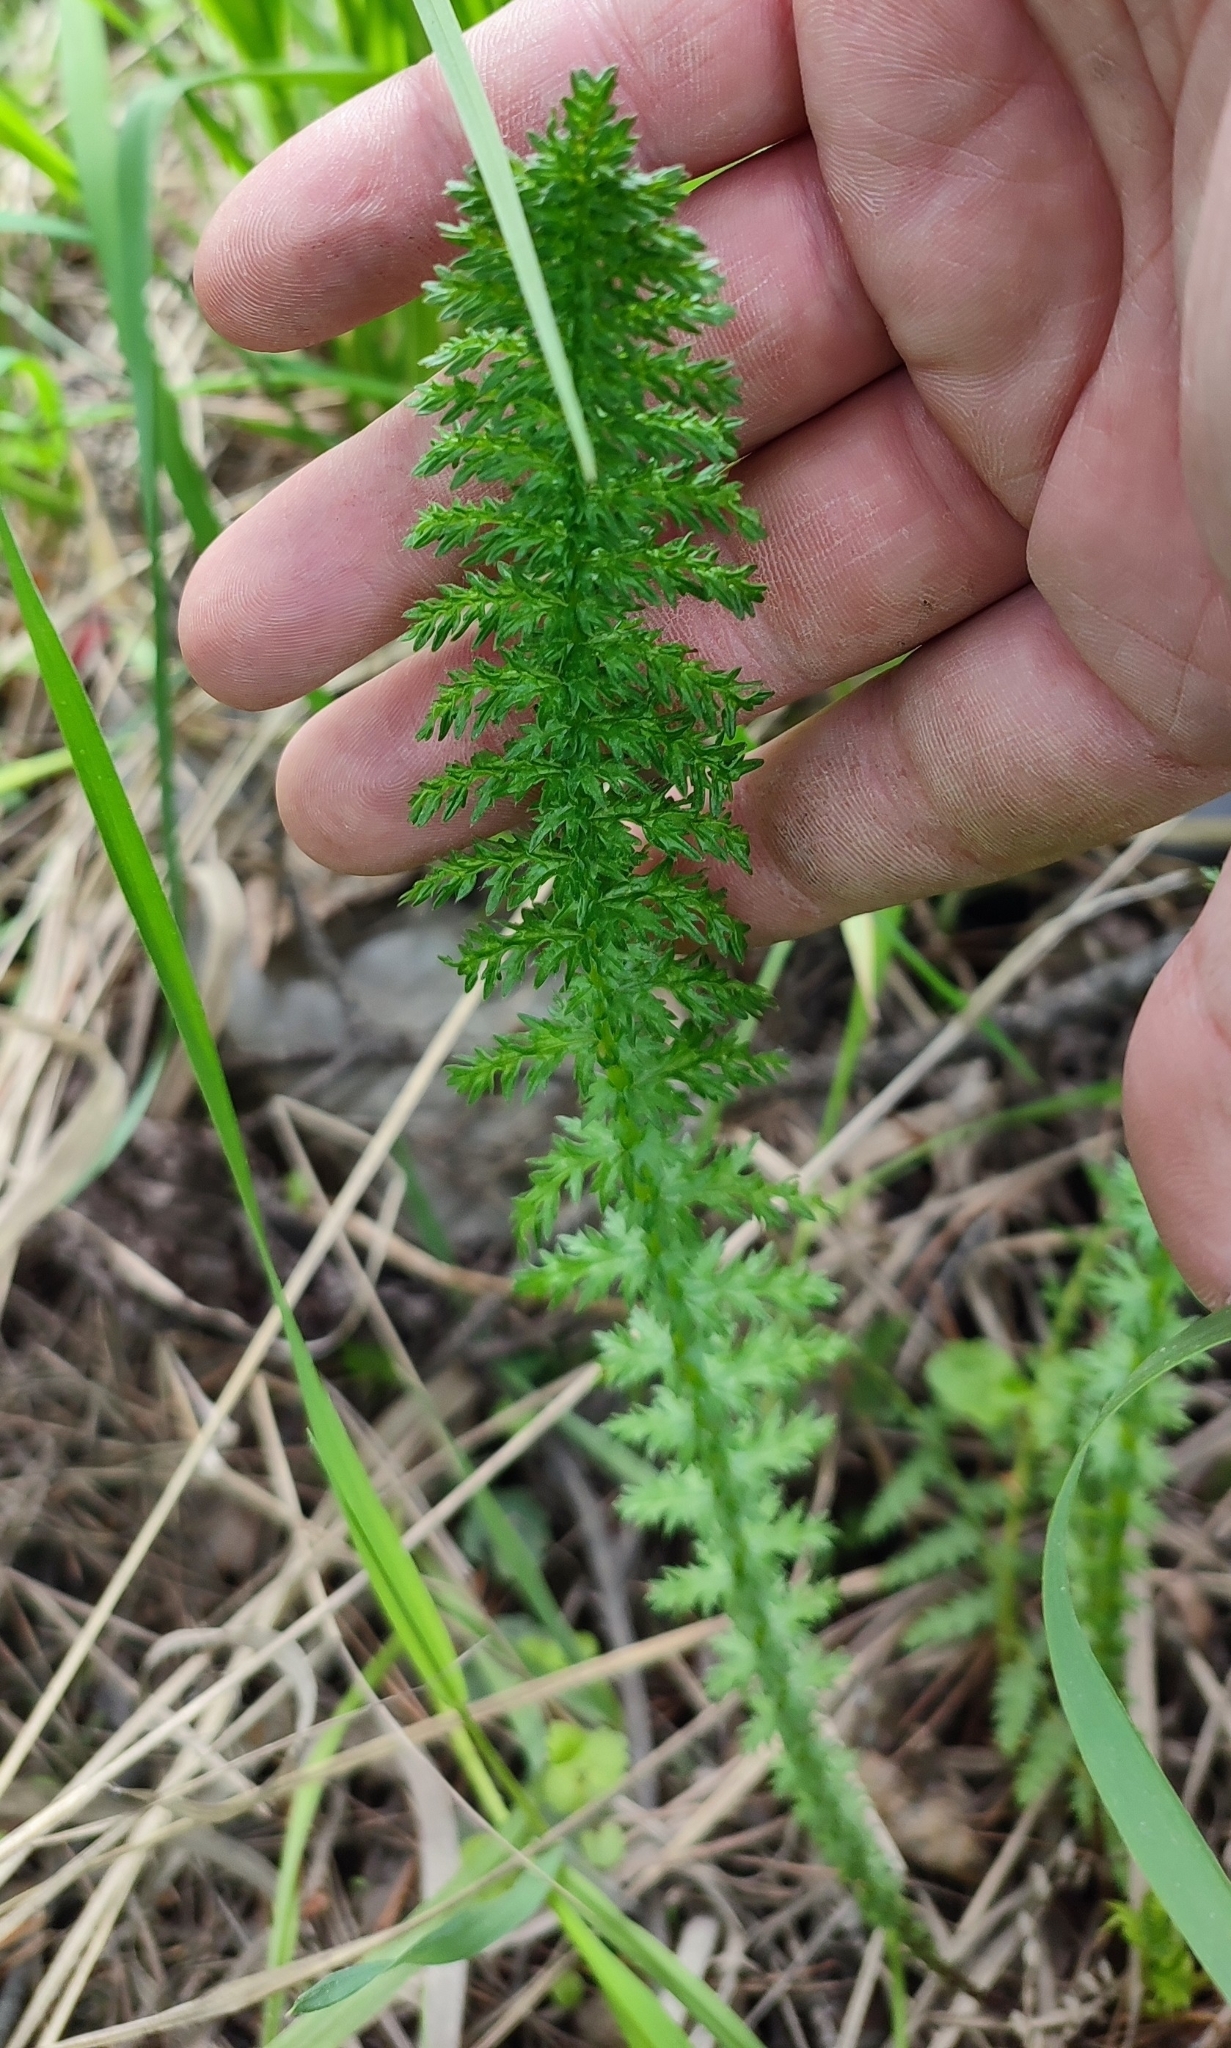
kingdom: Plantae
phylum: Tracheophyta
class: Magnoliopsida
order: Rosales
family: Rosaceae
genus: Filipendula
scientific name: Filipendula vulgaris
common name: Dropwort
